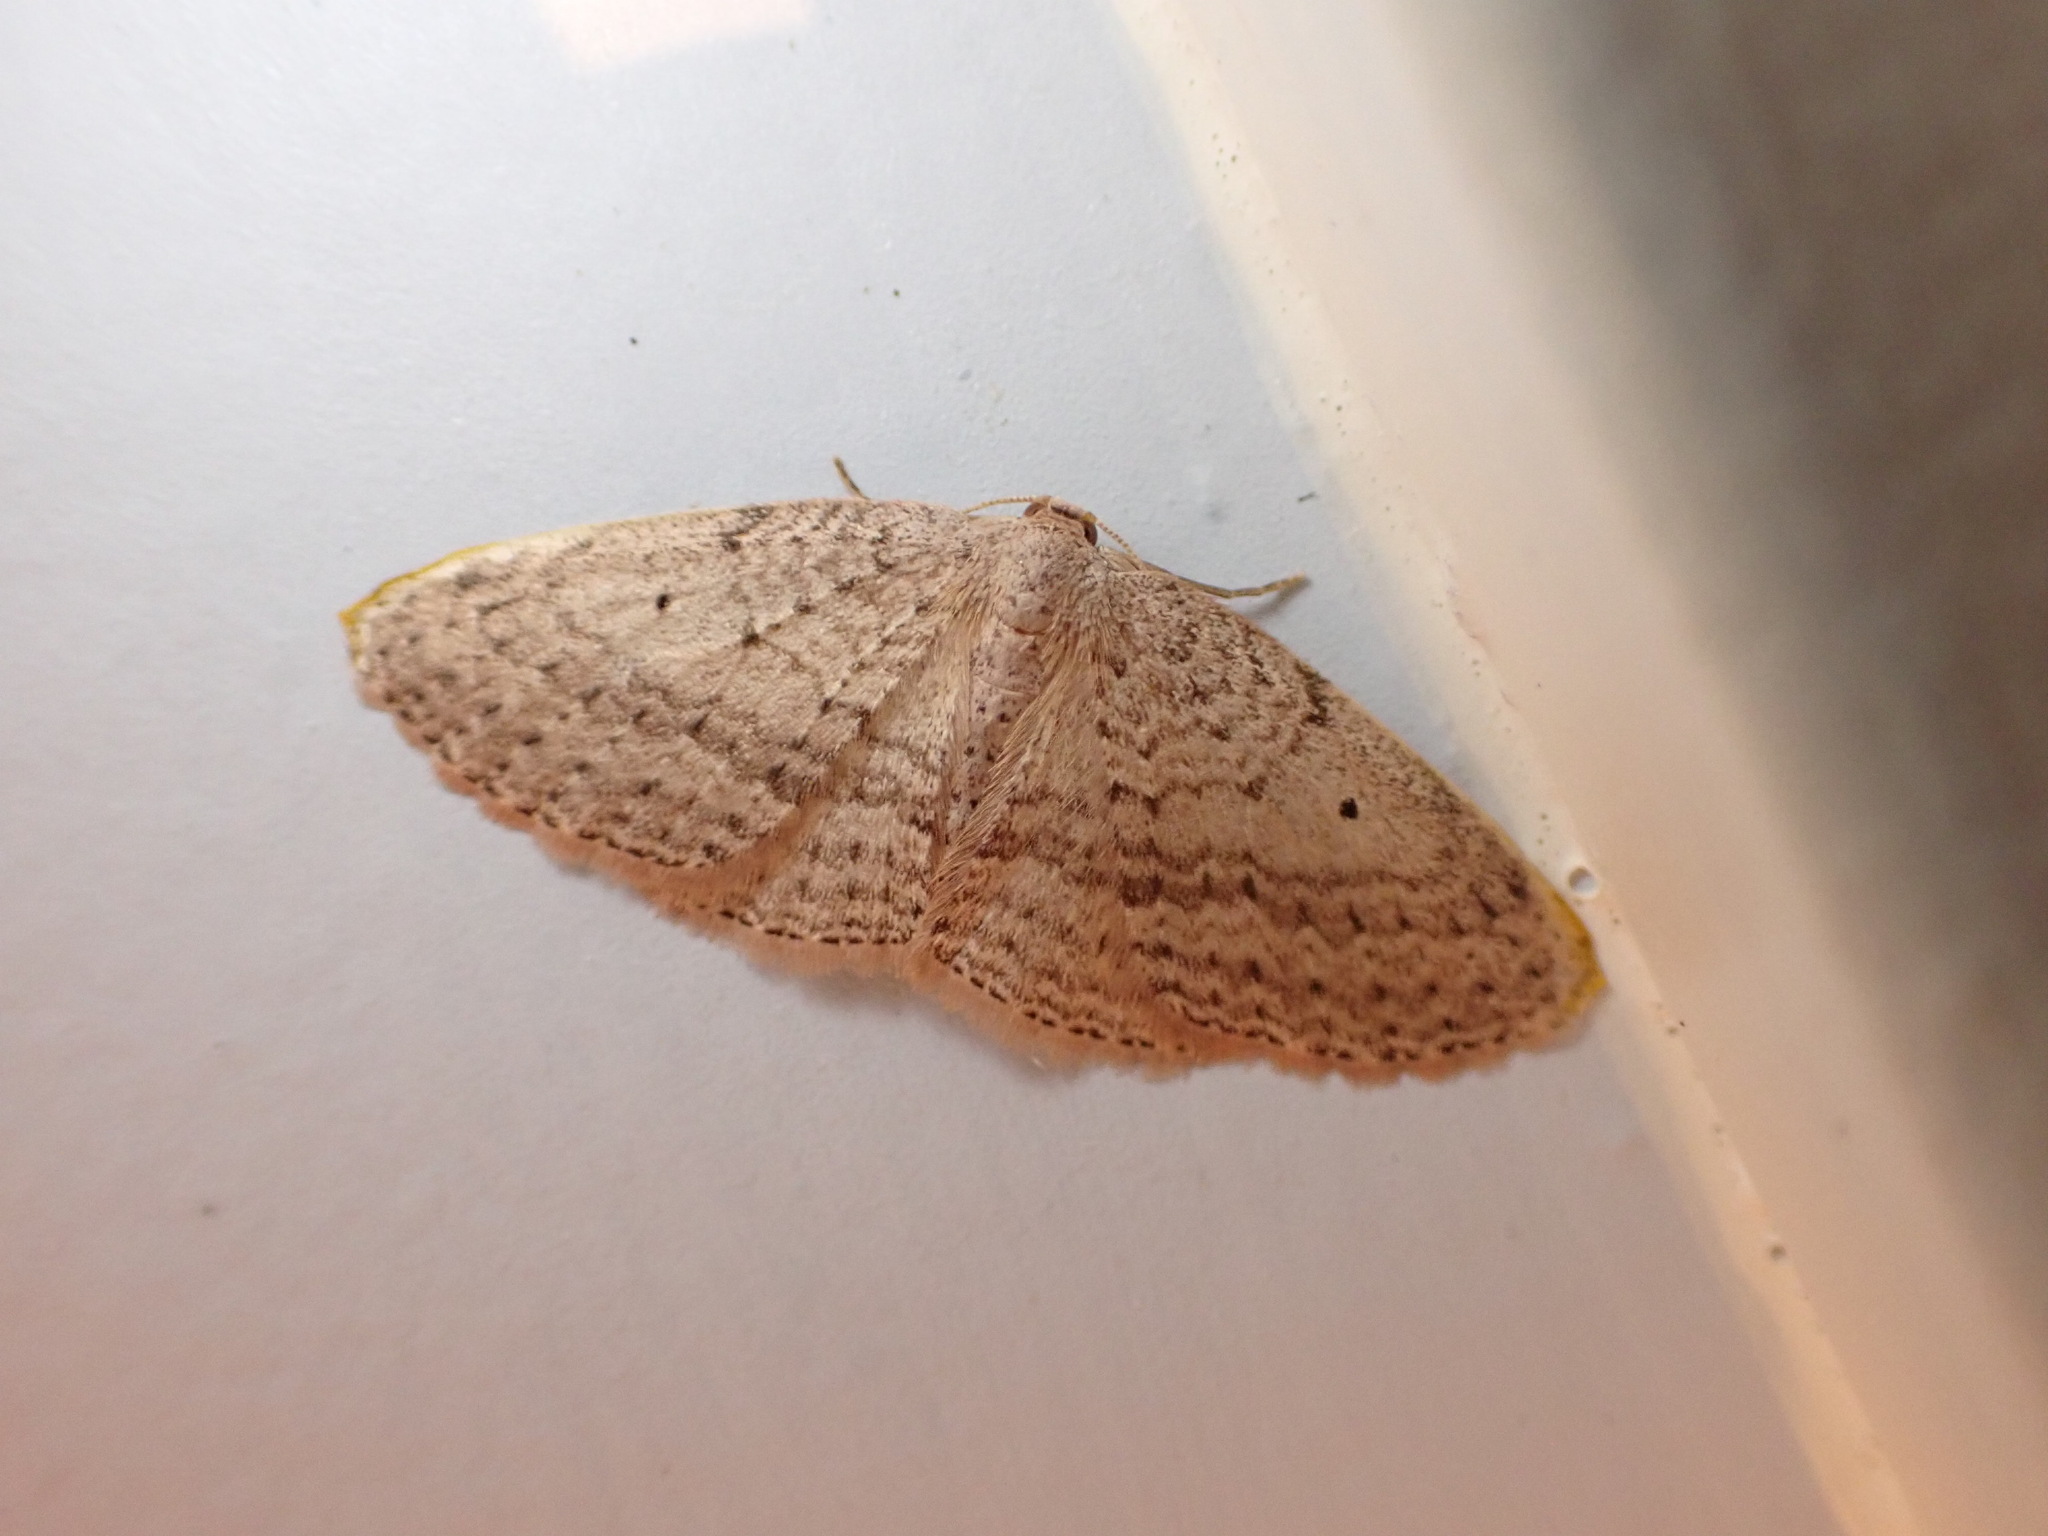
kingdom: Animalia
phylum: Arthropoda
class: Insecta
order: Lepidoptera
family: Geometridae
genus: Poecilasthena
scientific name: Poecilasthena schistaria
